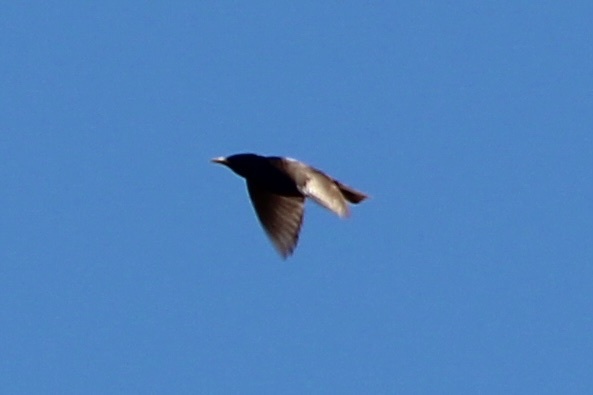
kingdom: Animalia
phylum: Chordata
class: Aves
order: Passeriformes
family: Sturnidae
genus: Sturnus
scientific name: Sturnus vulgaris
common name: Common starling
